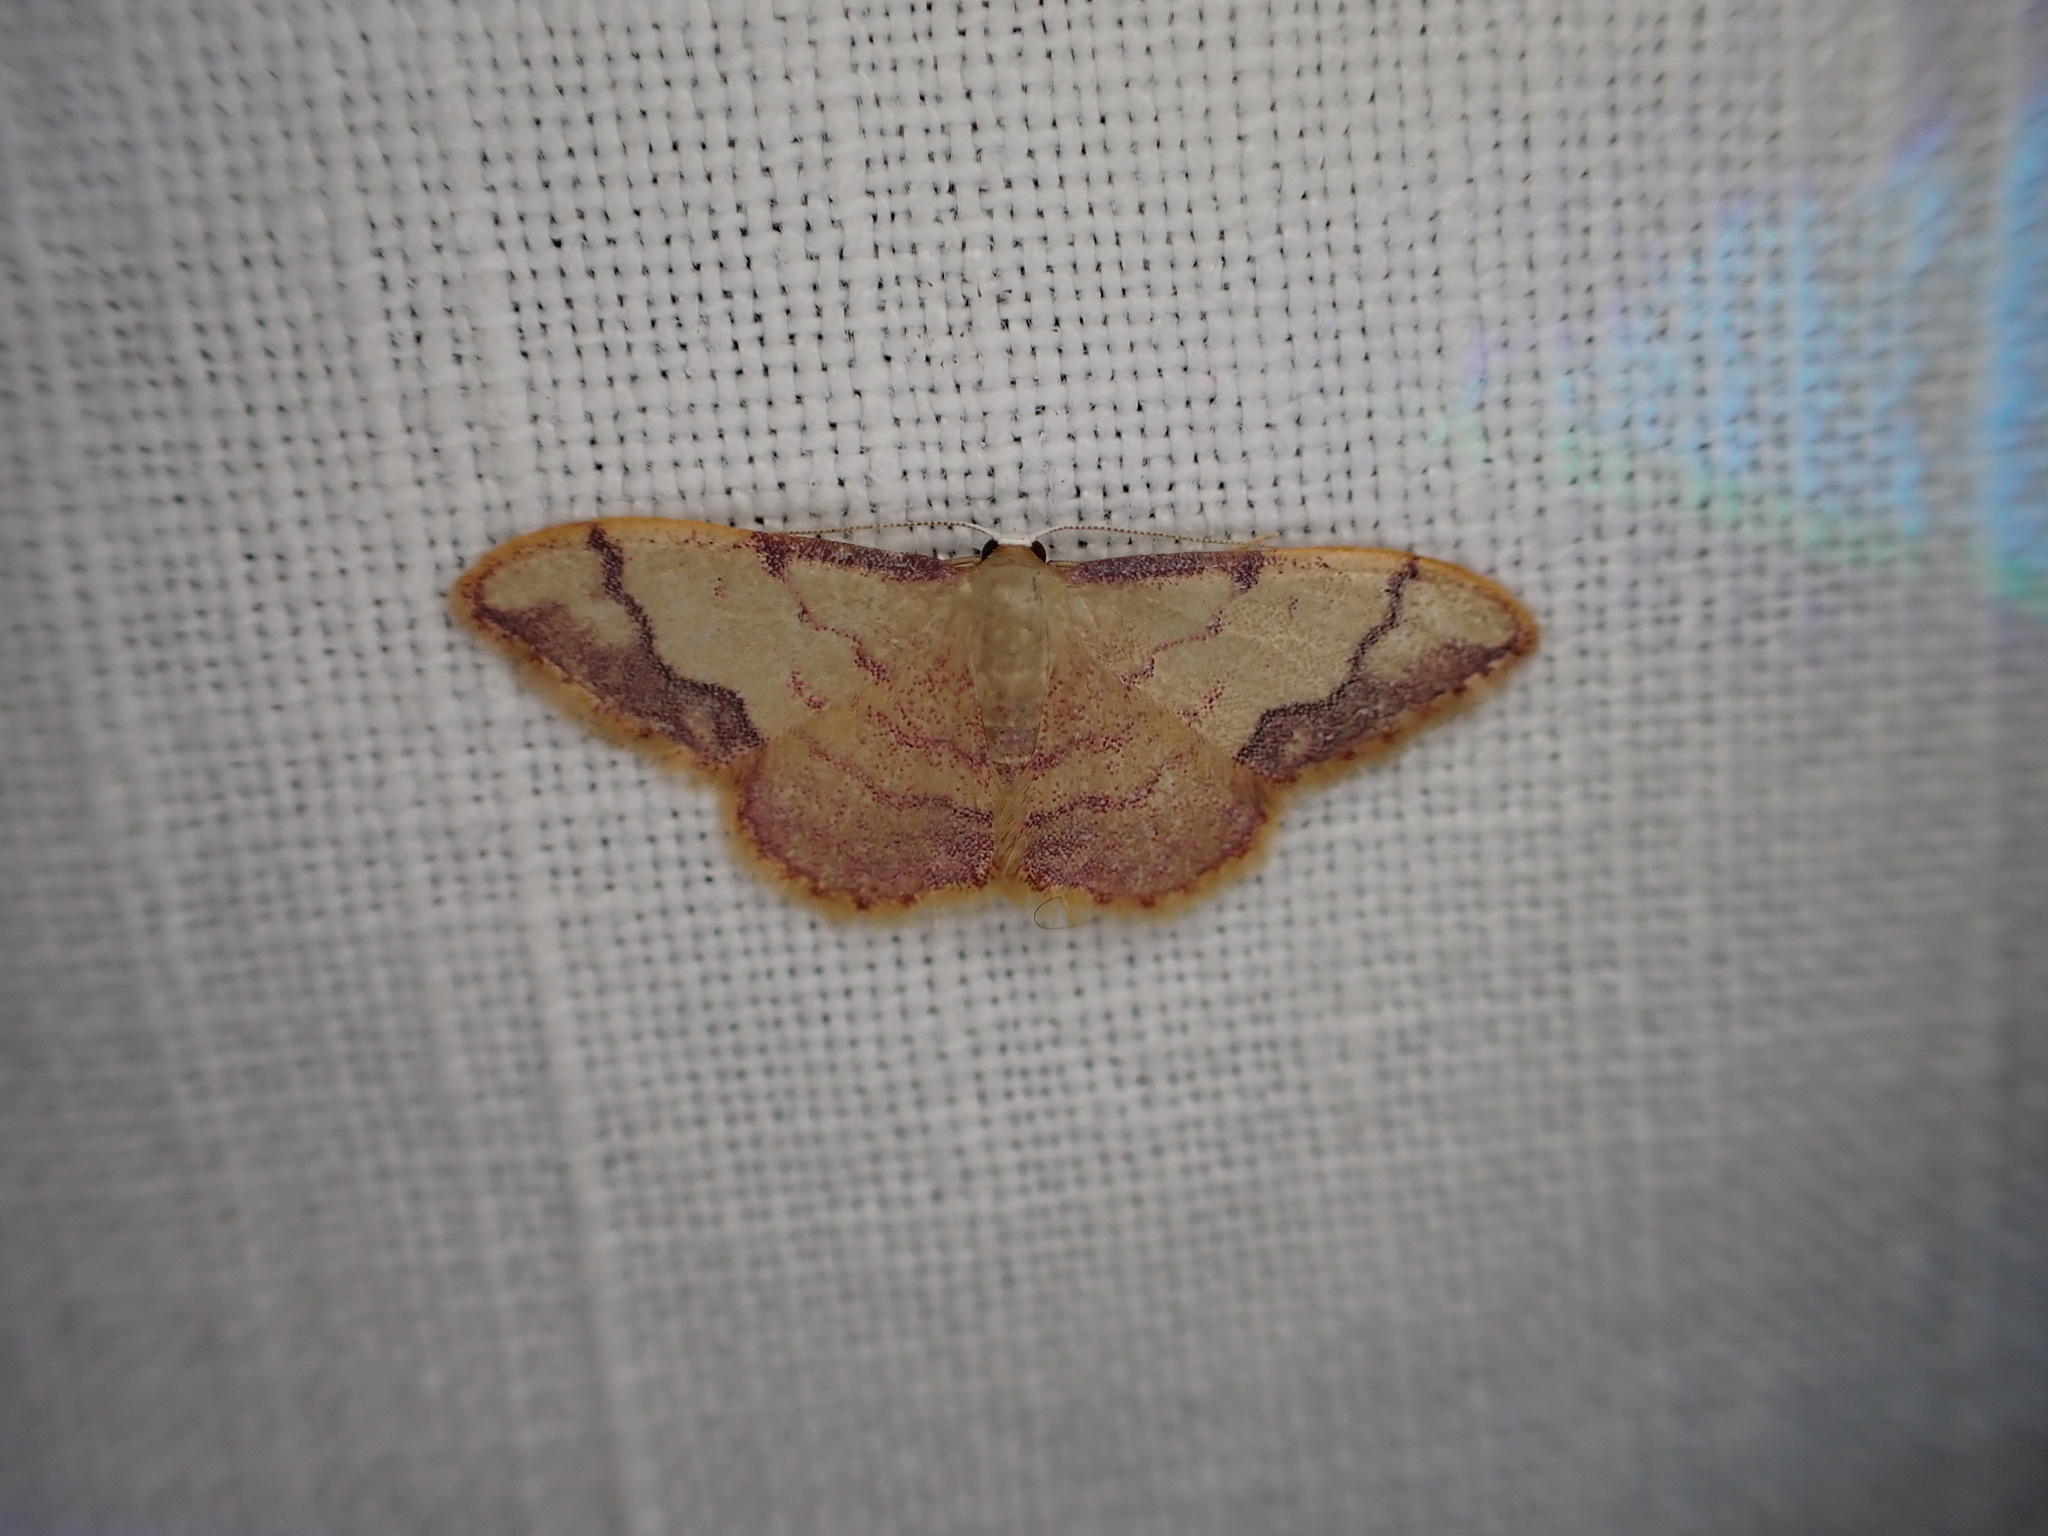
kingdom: Animalia
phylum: Arthropoda
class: Insecta
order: Lepidoptera
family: Geometridae
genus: Idaea
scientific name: Idaea ostrinaria
